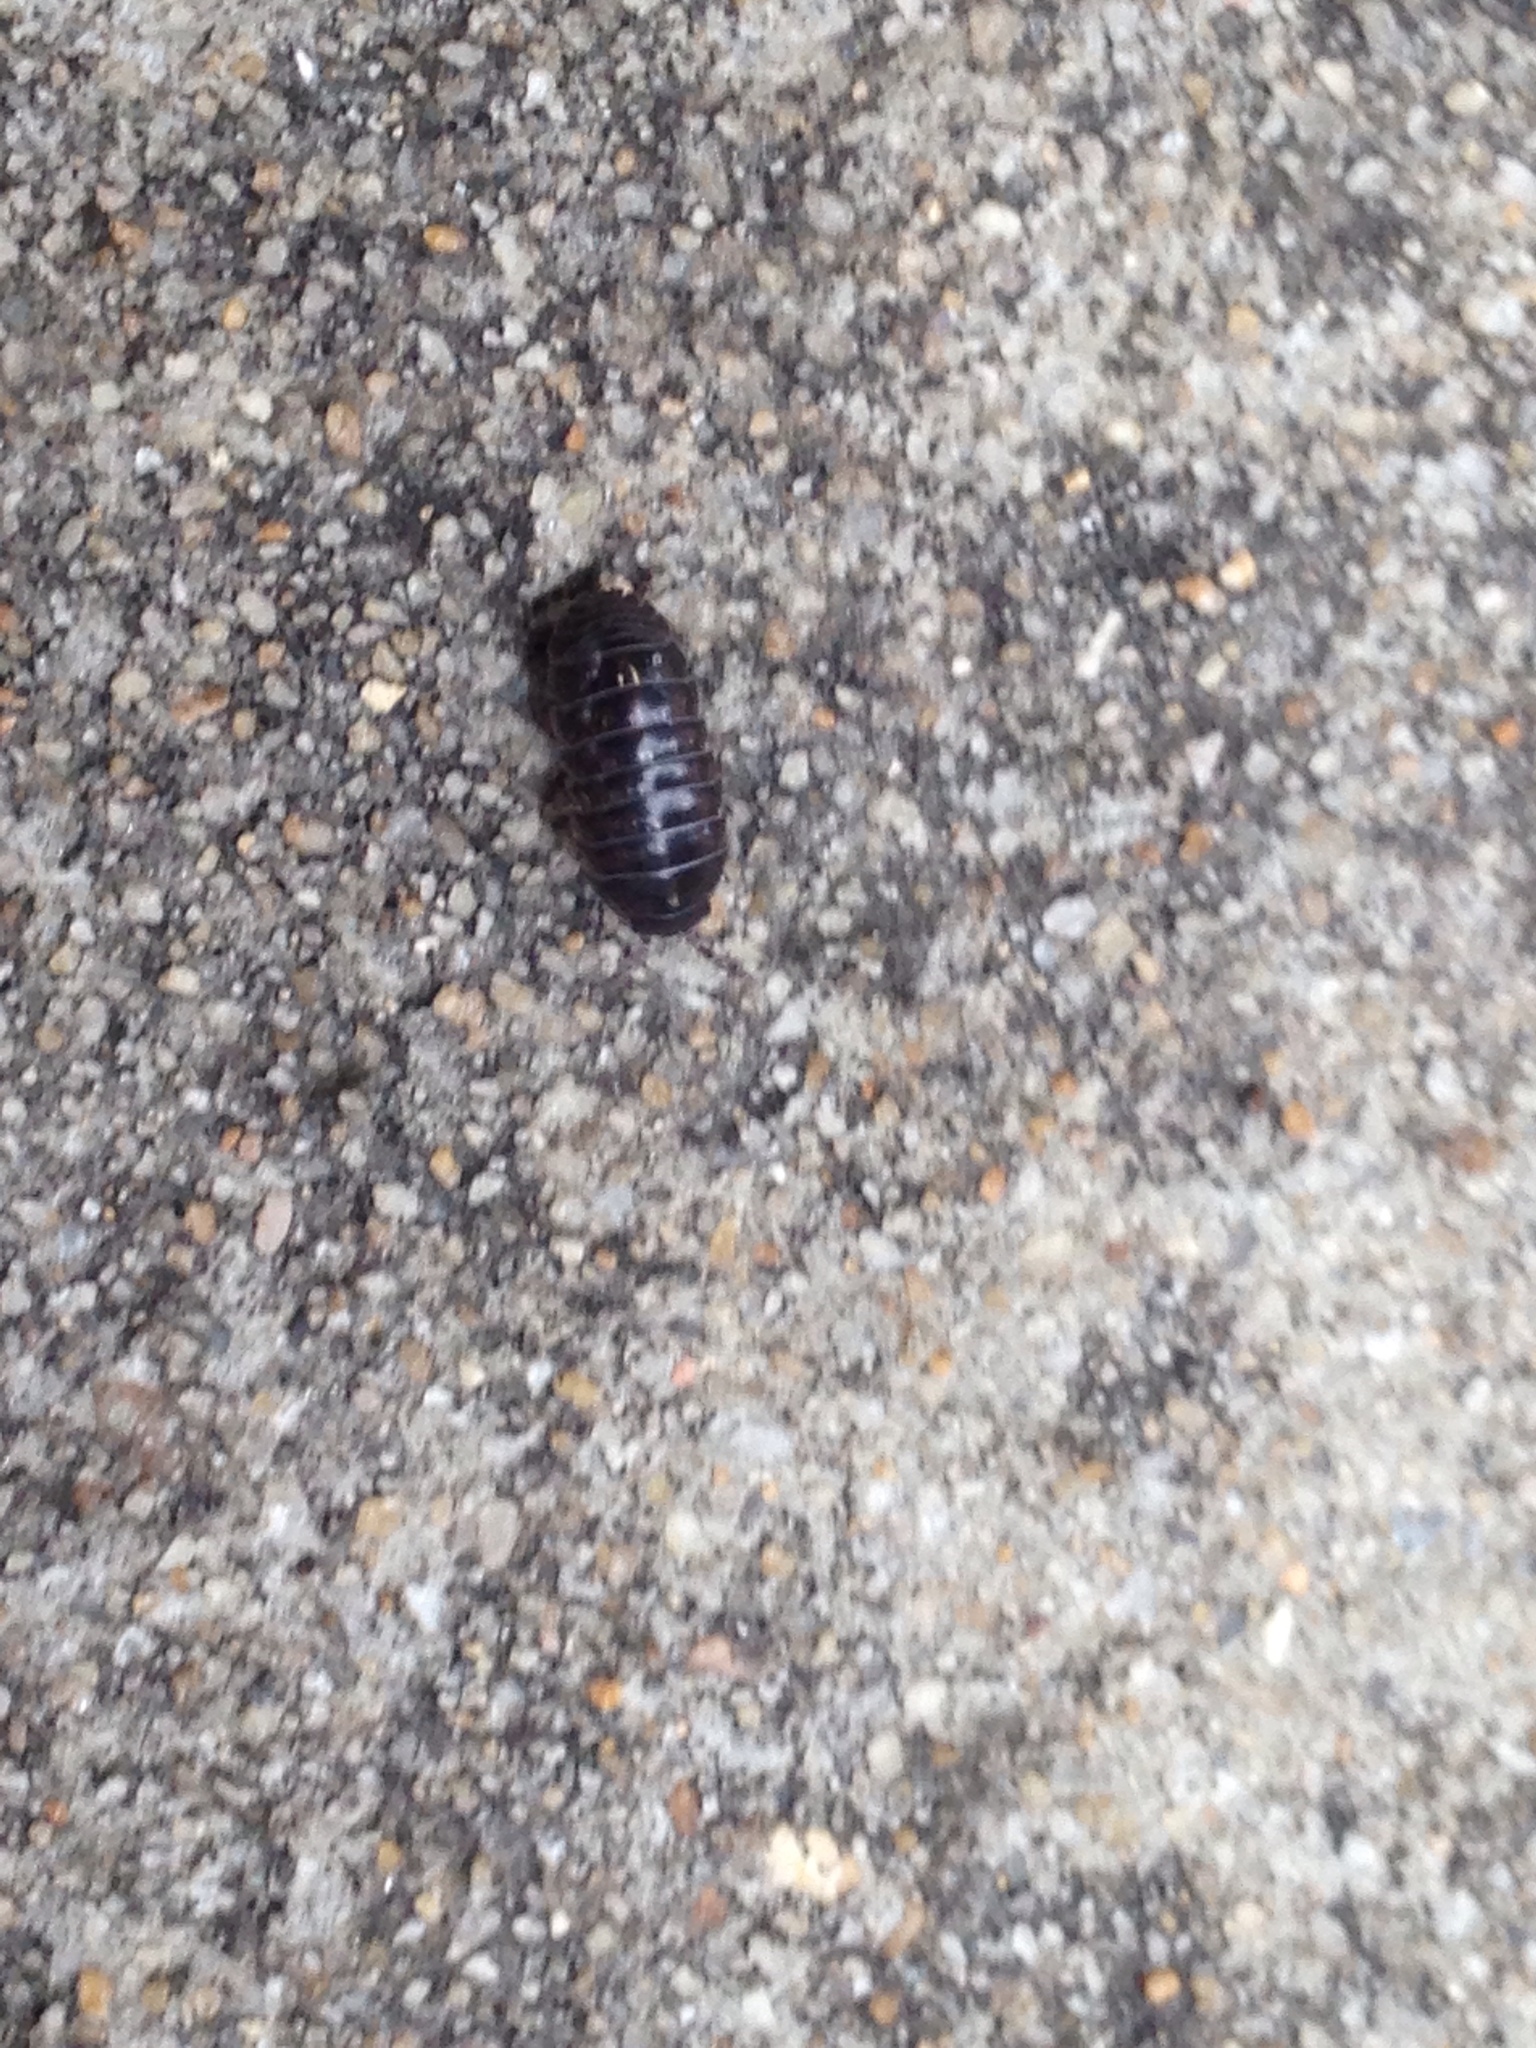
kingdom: Animalia
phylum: Arthropoda
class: Malacostraca
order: Isopoda
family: Armadillidiidae
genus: Armadillidium
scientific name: Armadillidium vulgare
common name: Common pill woodlouse
